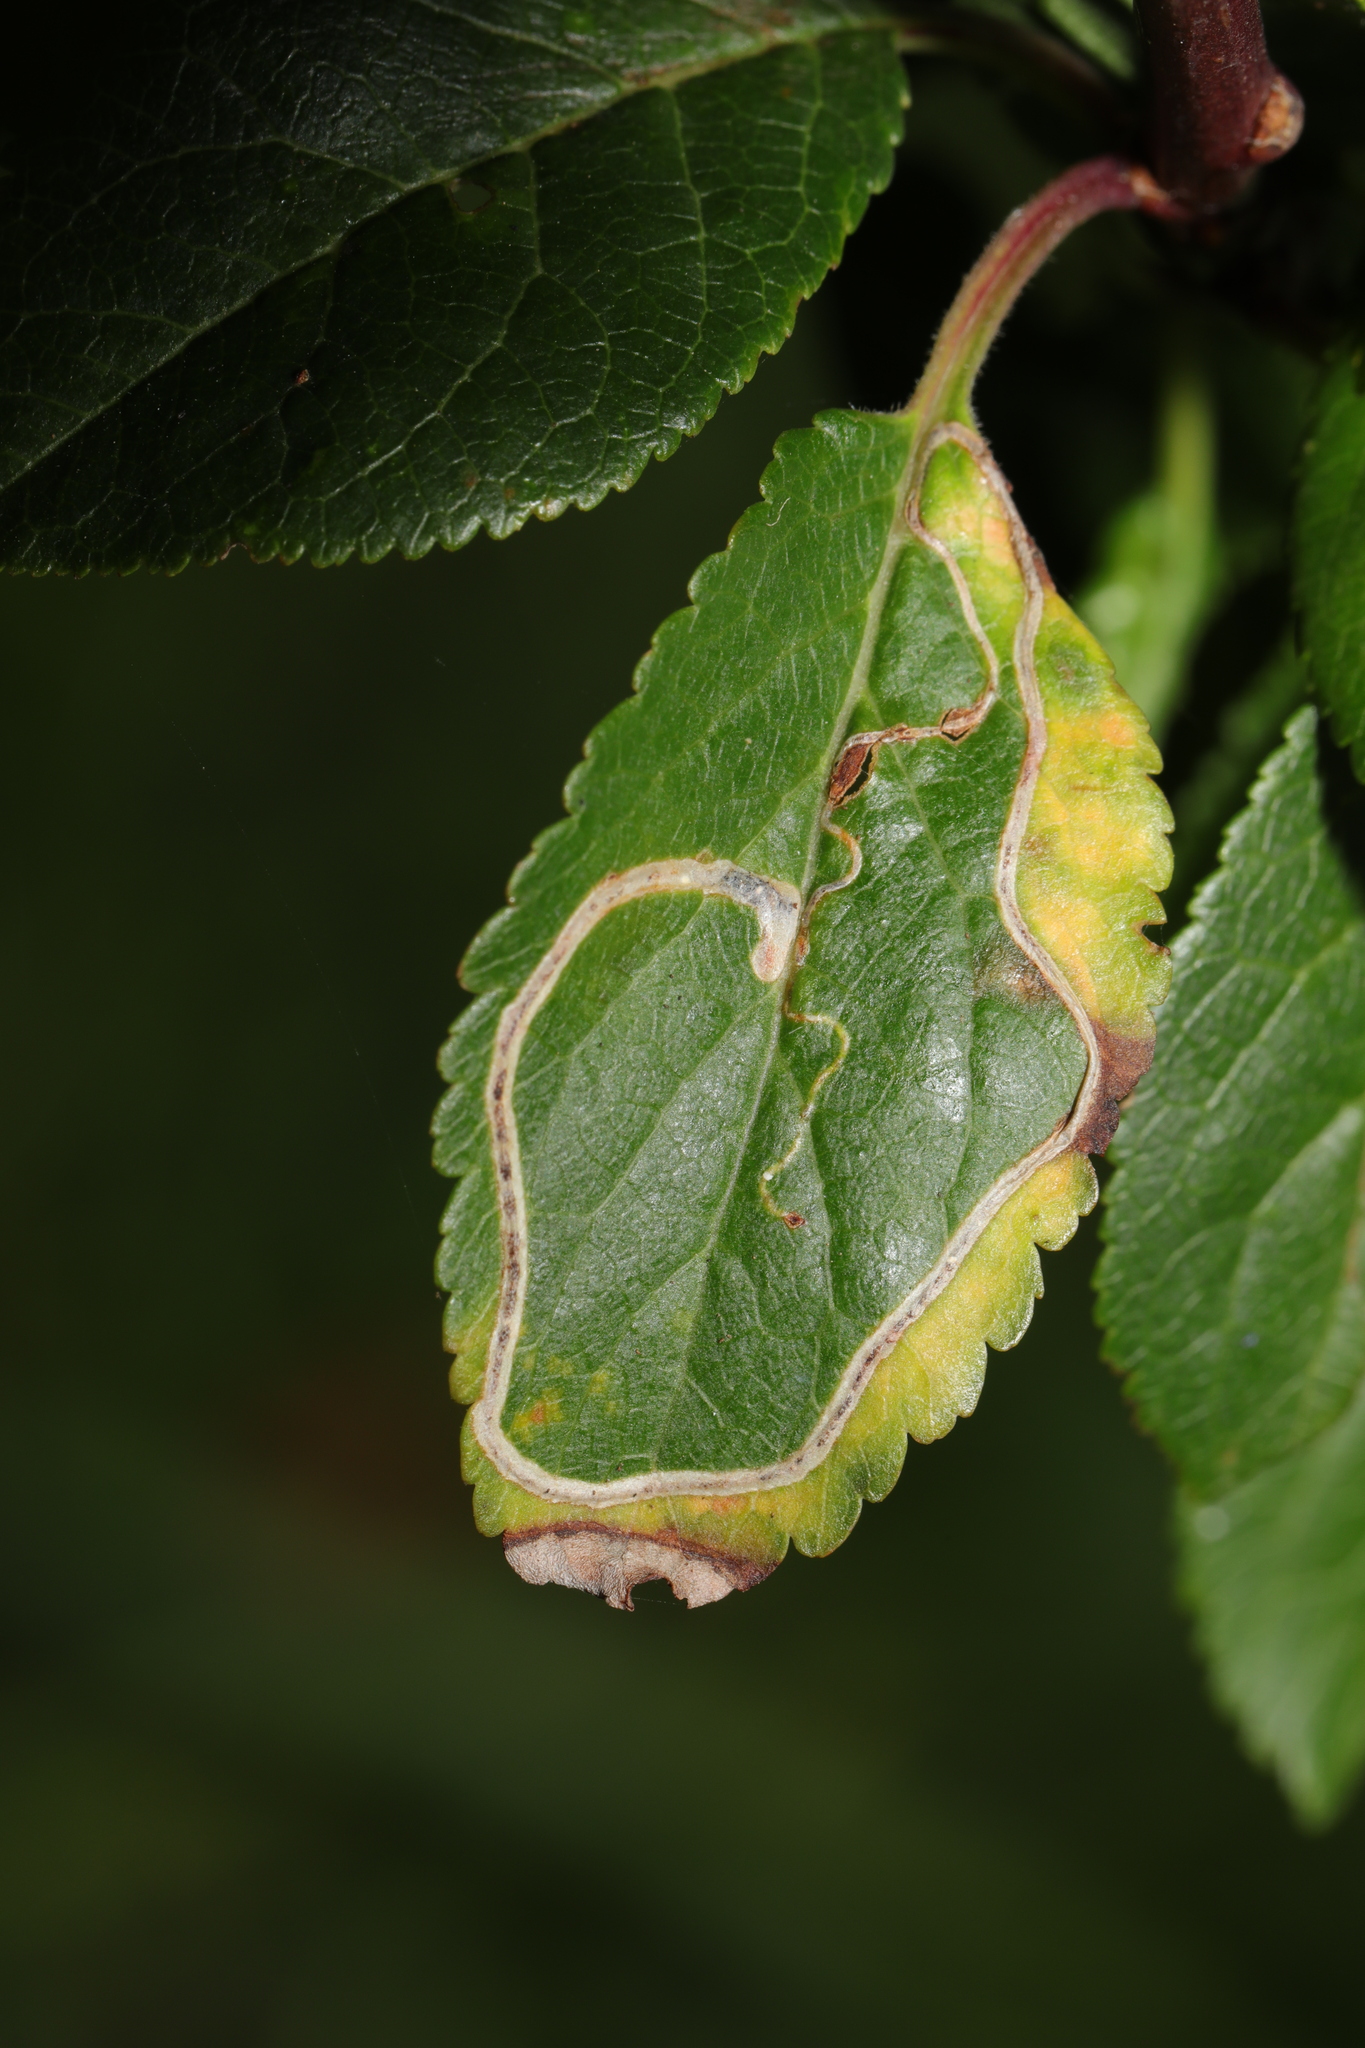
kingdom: Animalia
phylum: Arthropoda
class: Insecta
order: Lepidoptera
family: Lyonetiidae
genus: Lyonetia
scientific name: Lyonetia clerkella
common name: Apple leaf miner
